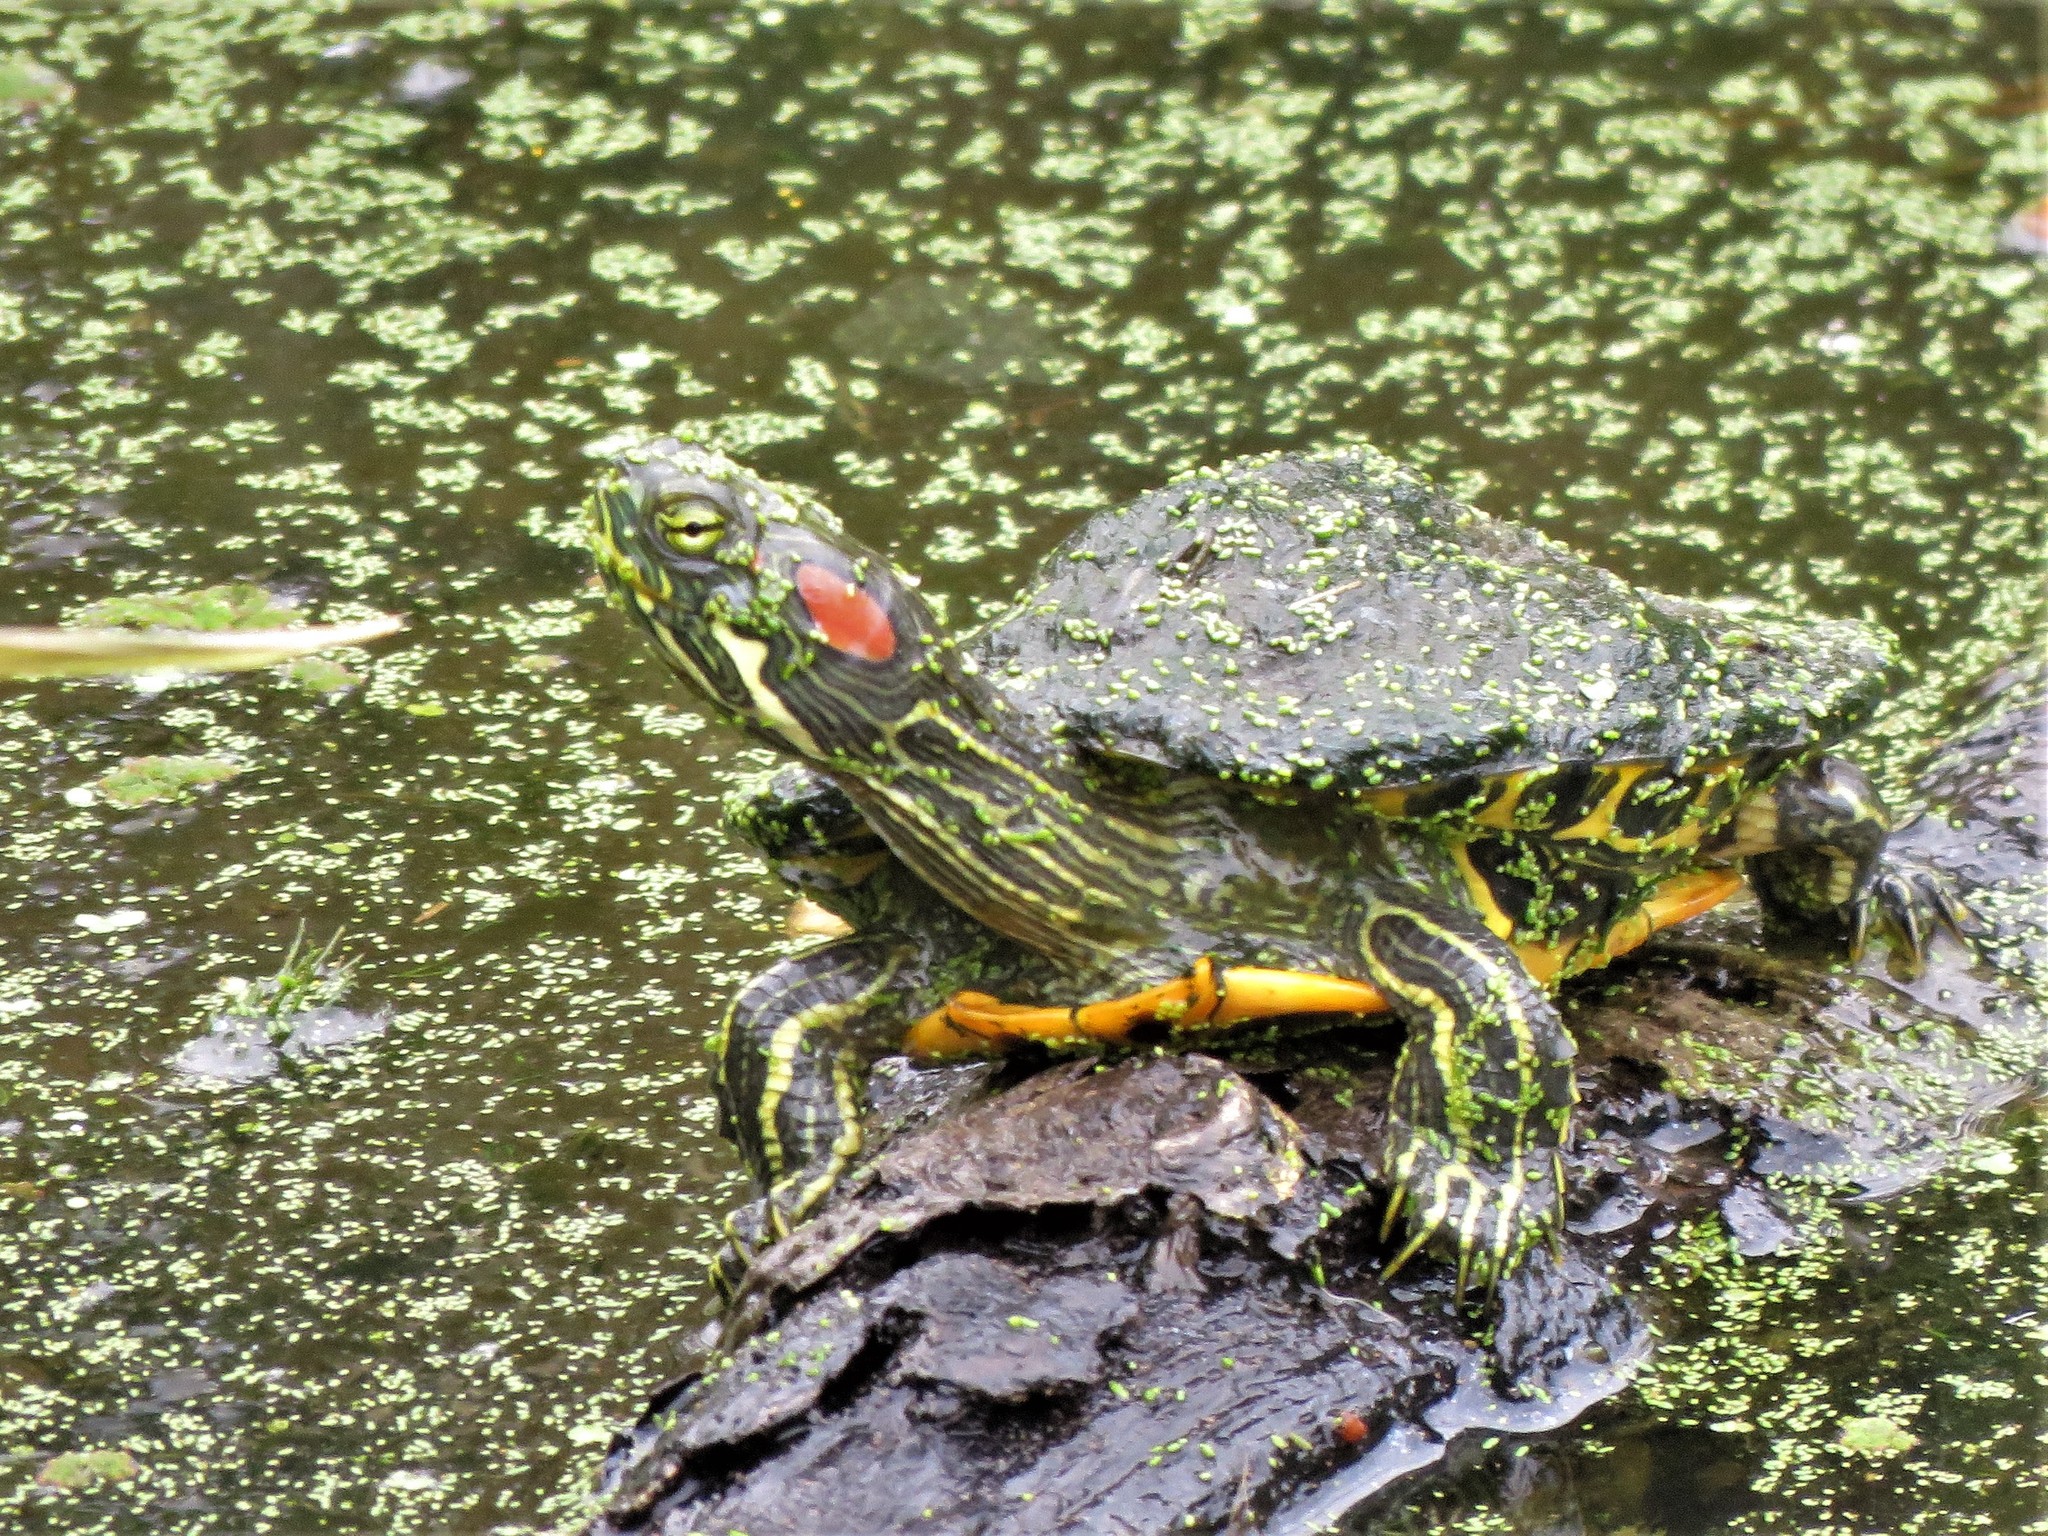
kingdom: Animalia
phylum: Chordata
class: Testudines
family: Emydidae
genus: Trachemys
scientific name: Trachemys scripta
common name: Slider
